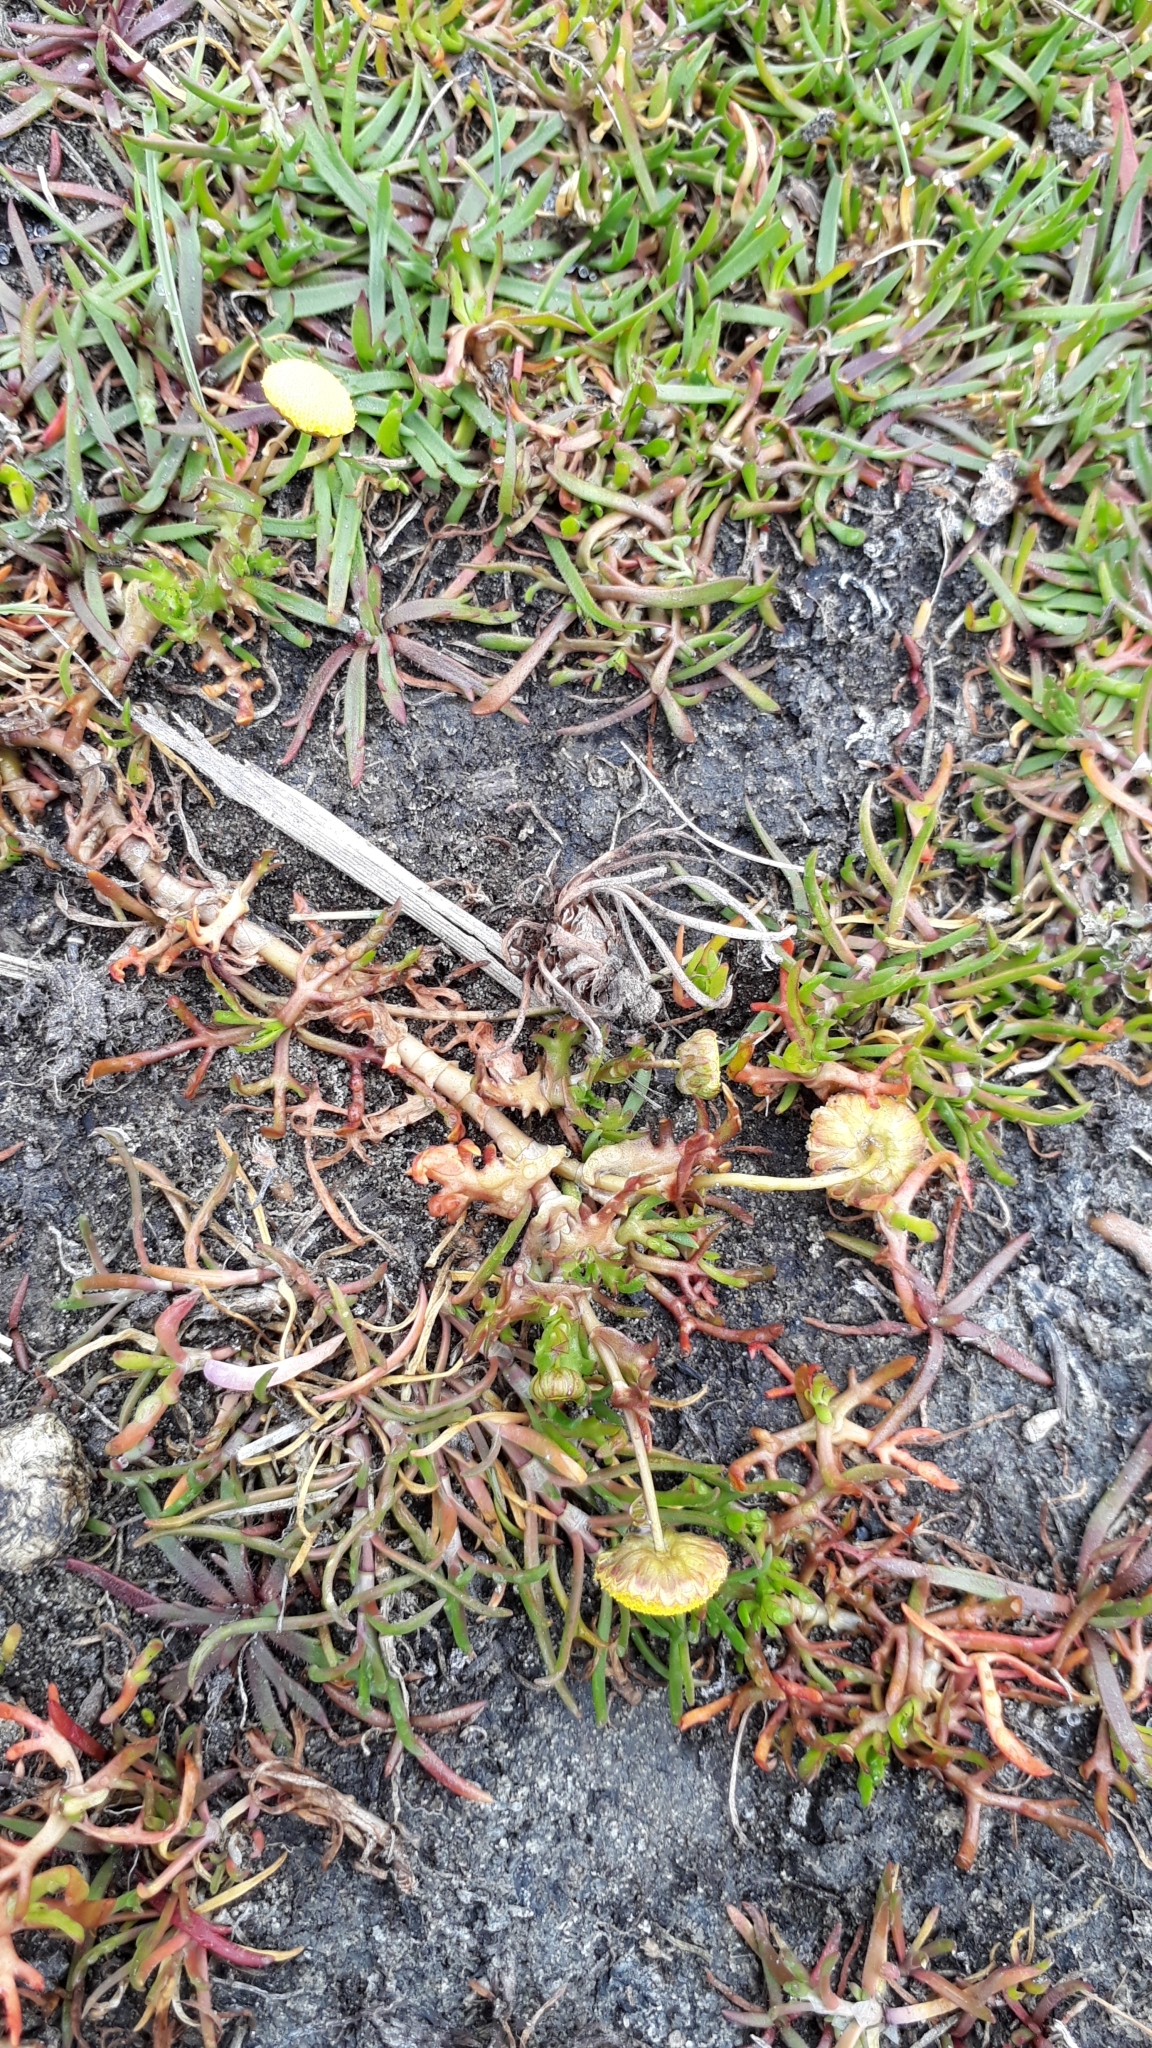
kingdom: Plantae
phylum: Tracheophyta
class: Magnoliopsida
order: Asterales
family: Asteraceae
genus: Cotula
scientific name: Cotula coronopifolia
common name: Buttonweed
